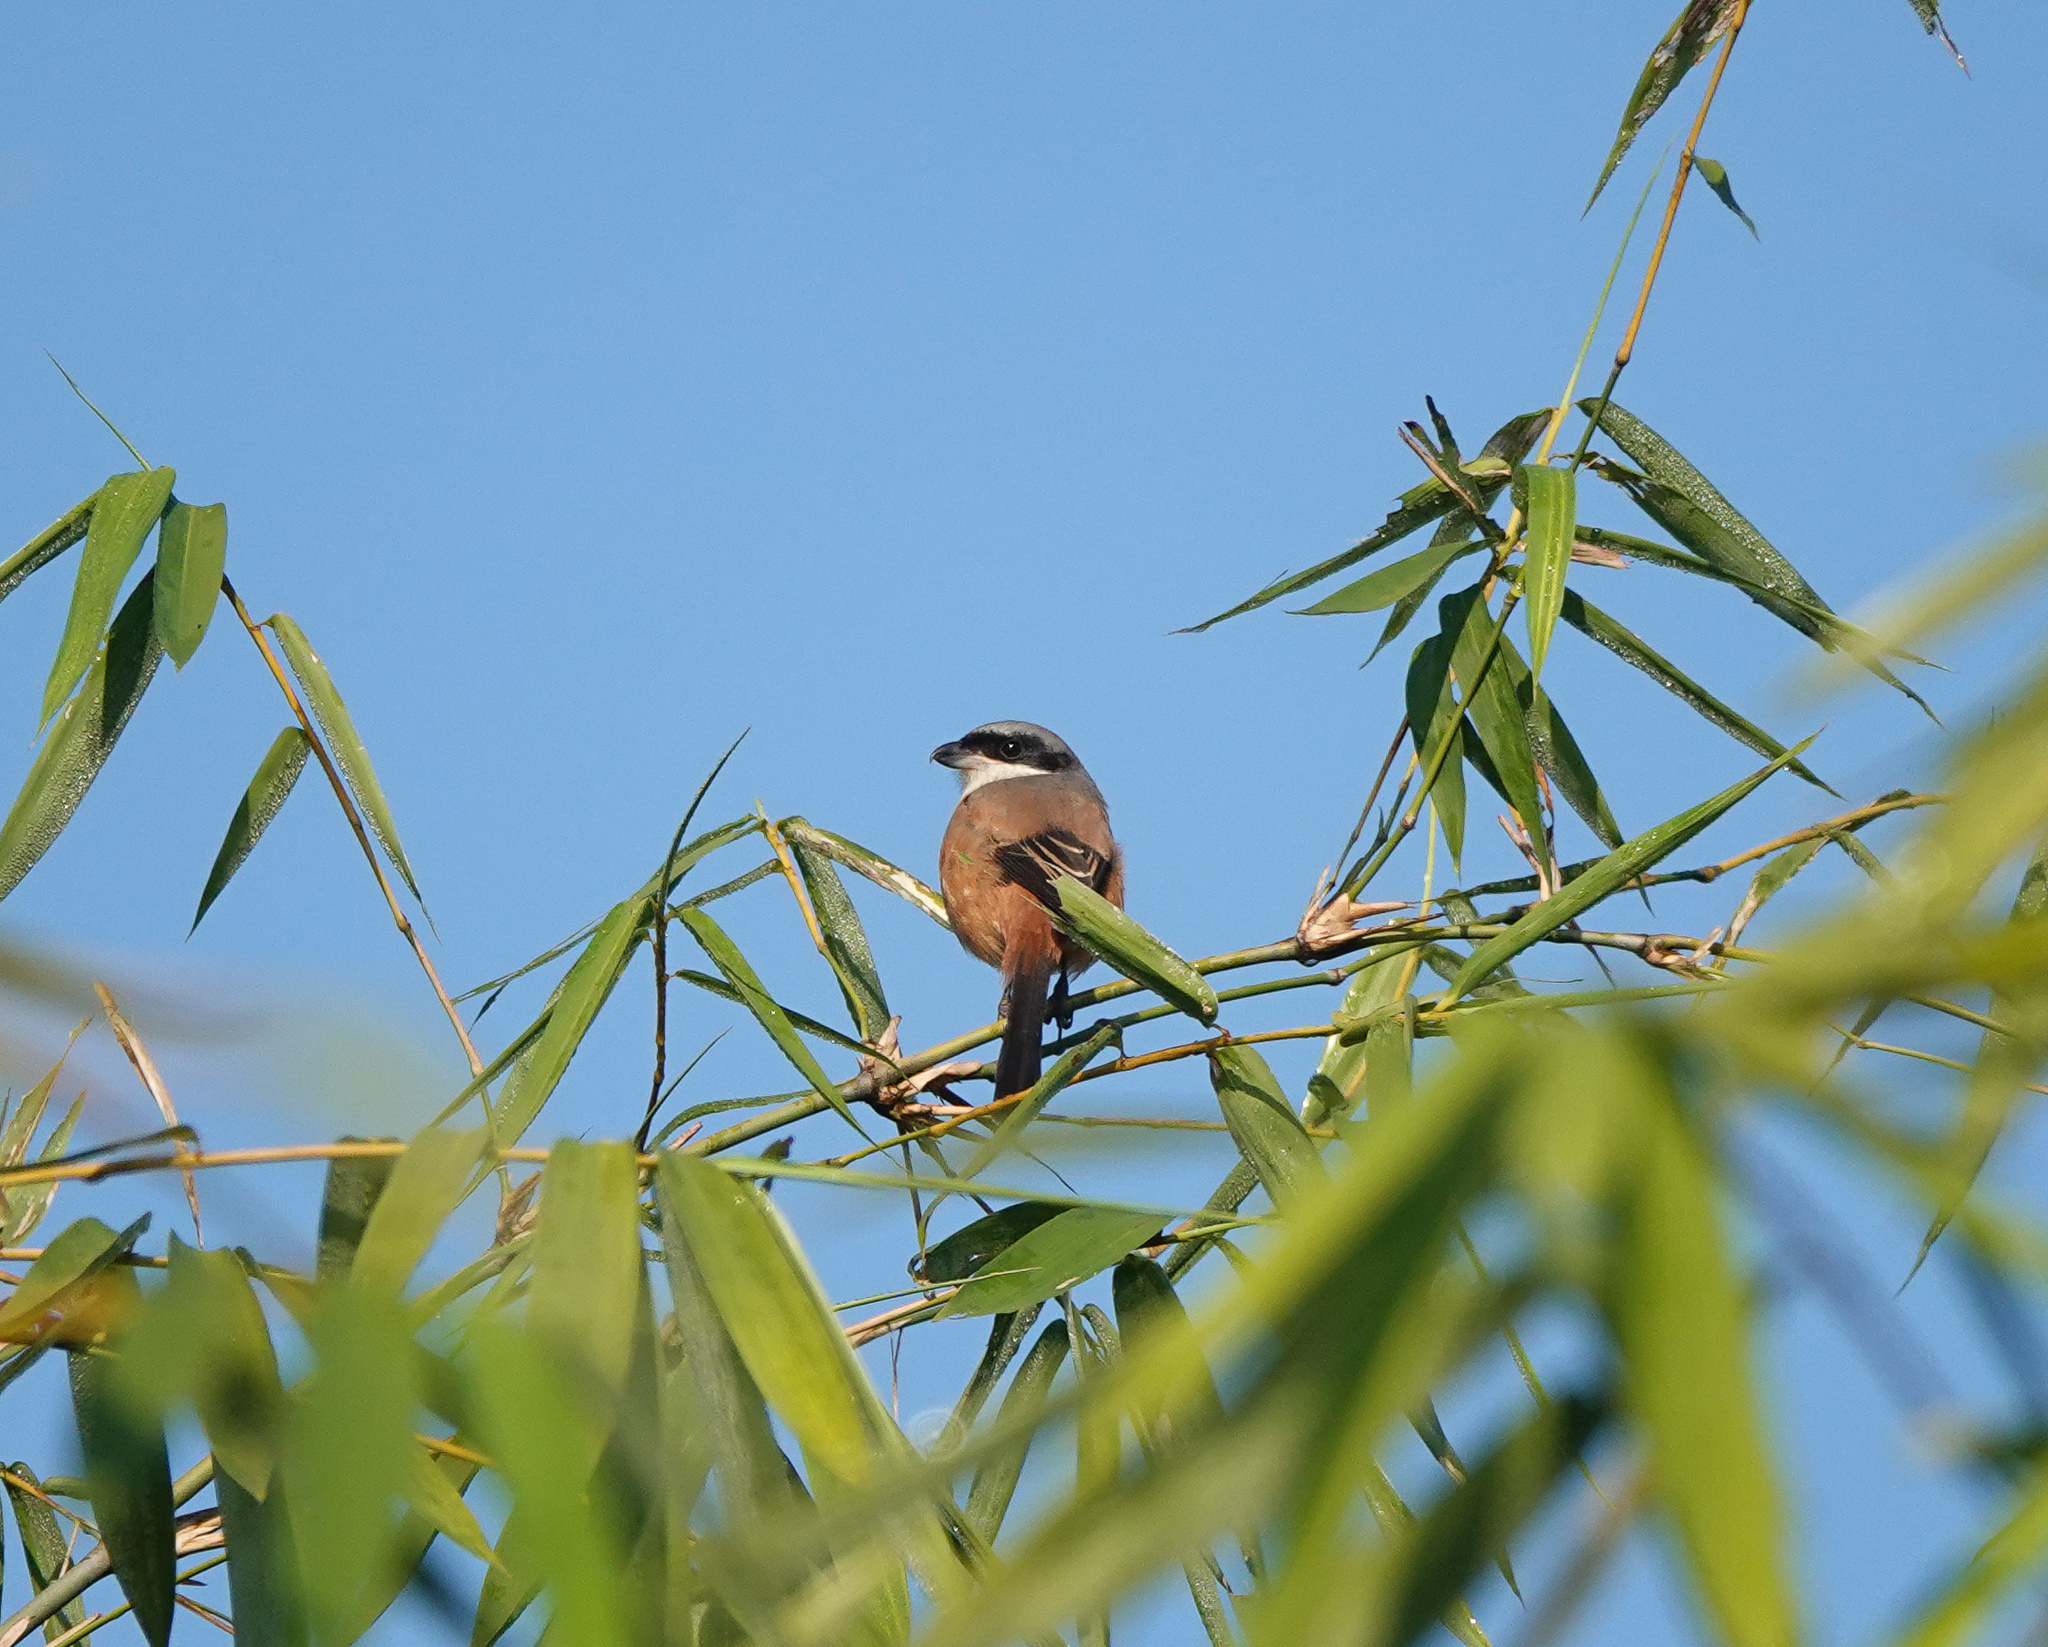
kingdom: Animalia
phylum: Chordata
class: Aves
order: Passeriformes
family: Laniidae
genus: Lanius
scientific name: Lanius tephronotus
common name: Grey-backed shrike
